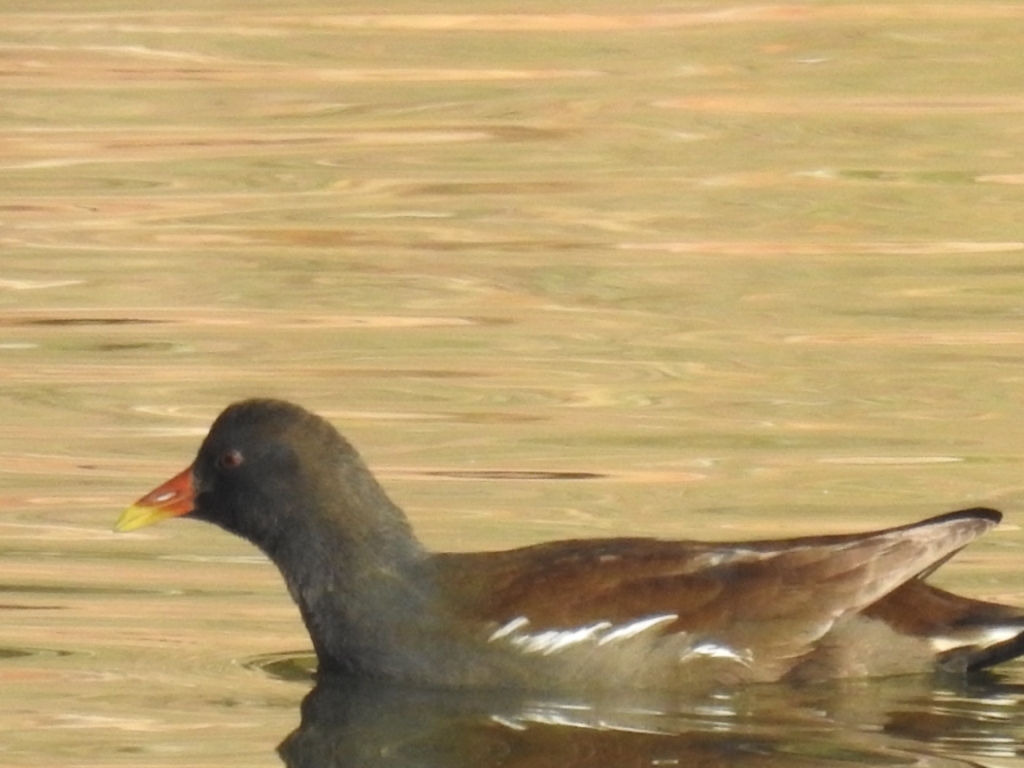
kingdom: Animalia
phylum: Chordata
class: Aves
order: Gruiformes
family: Rallidae
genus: Gallinula
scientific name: Gallinula chloropus
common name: Common moorhen
